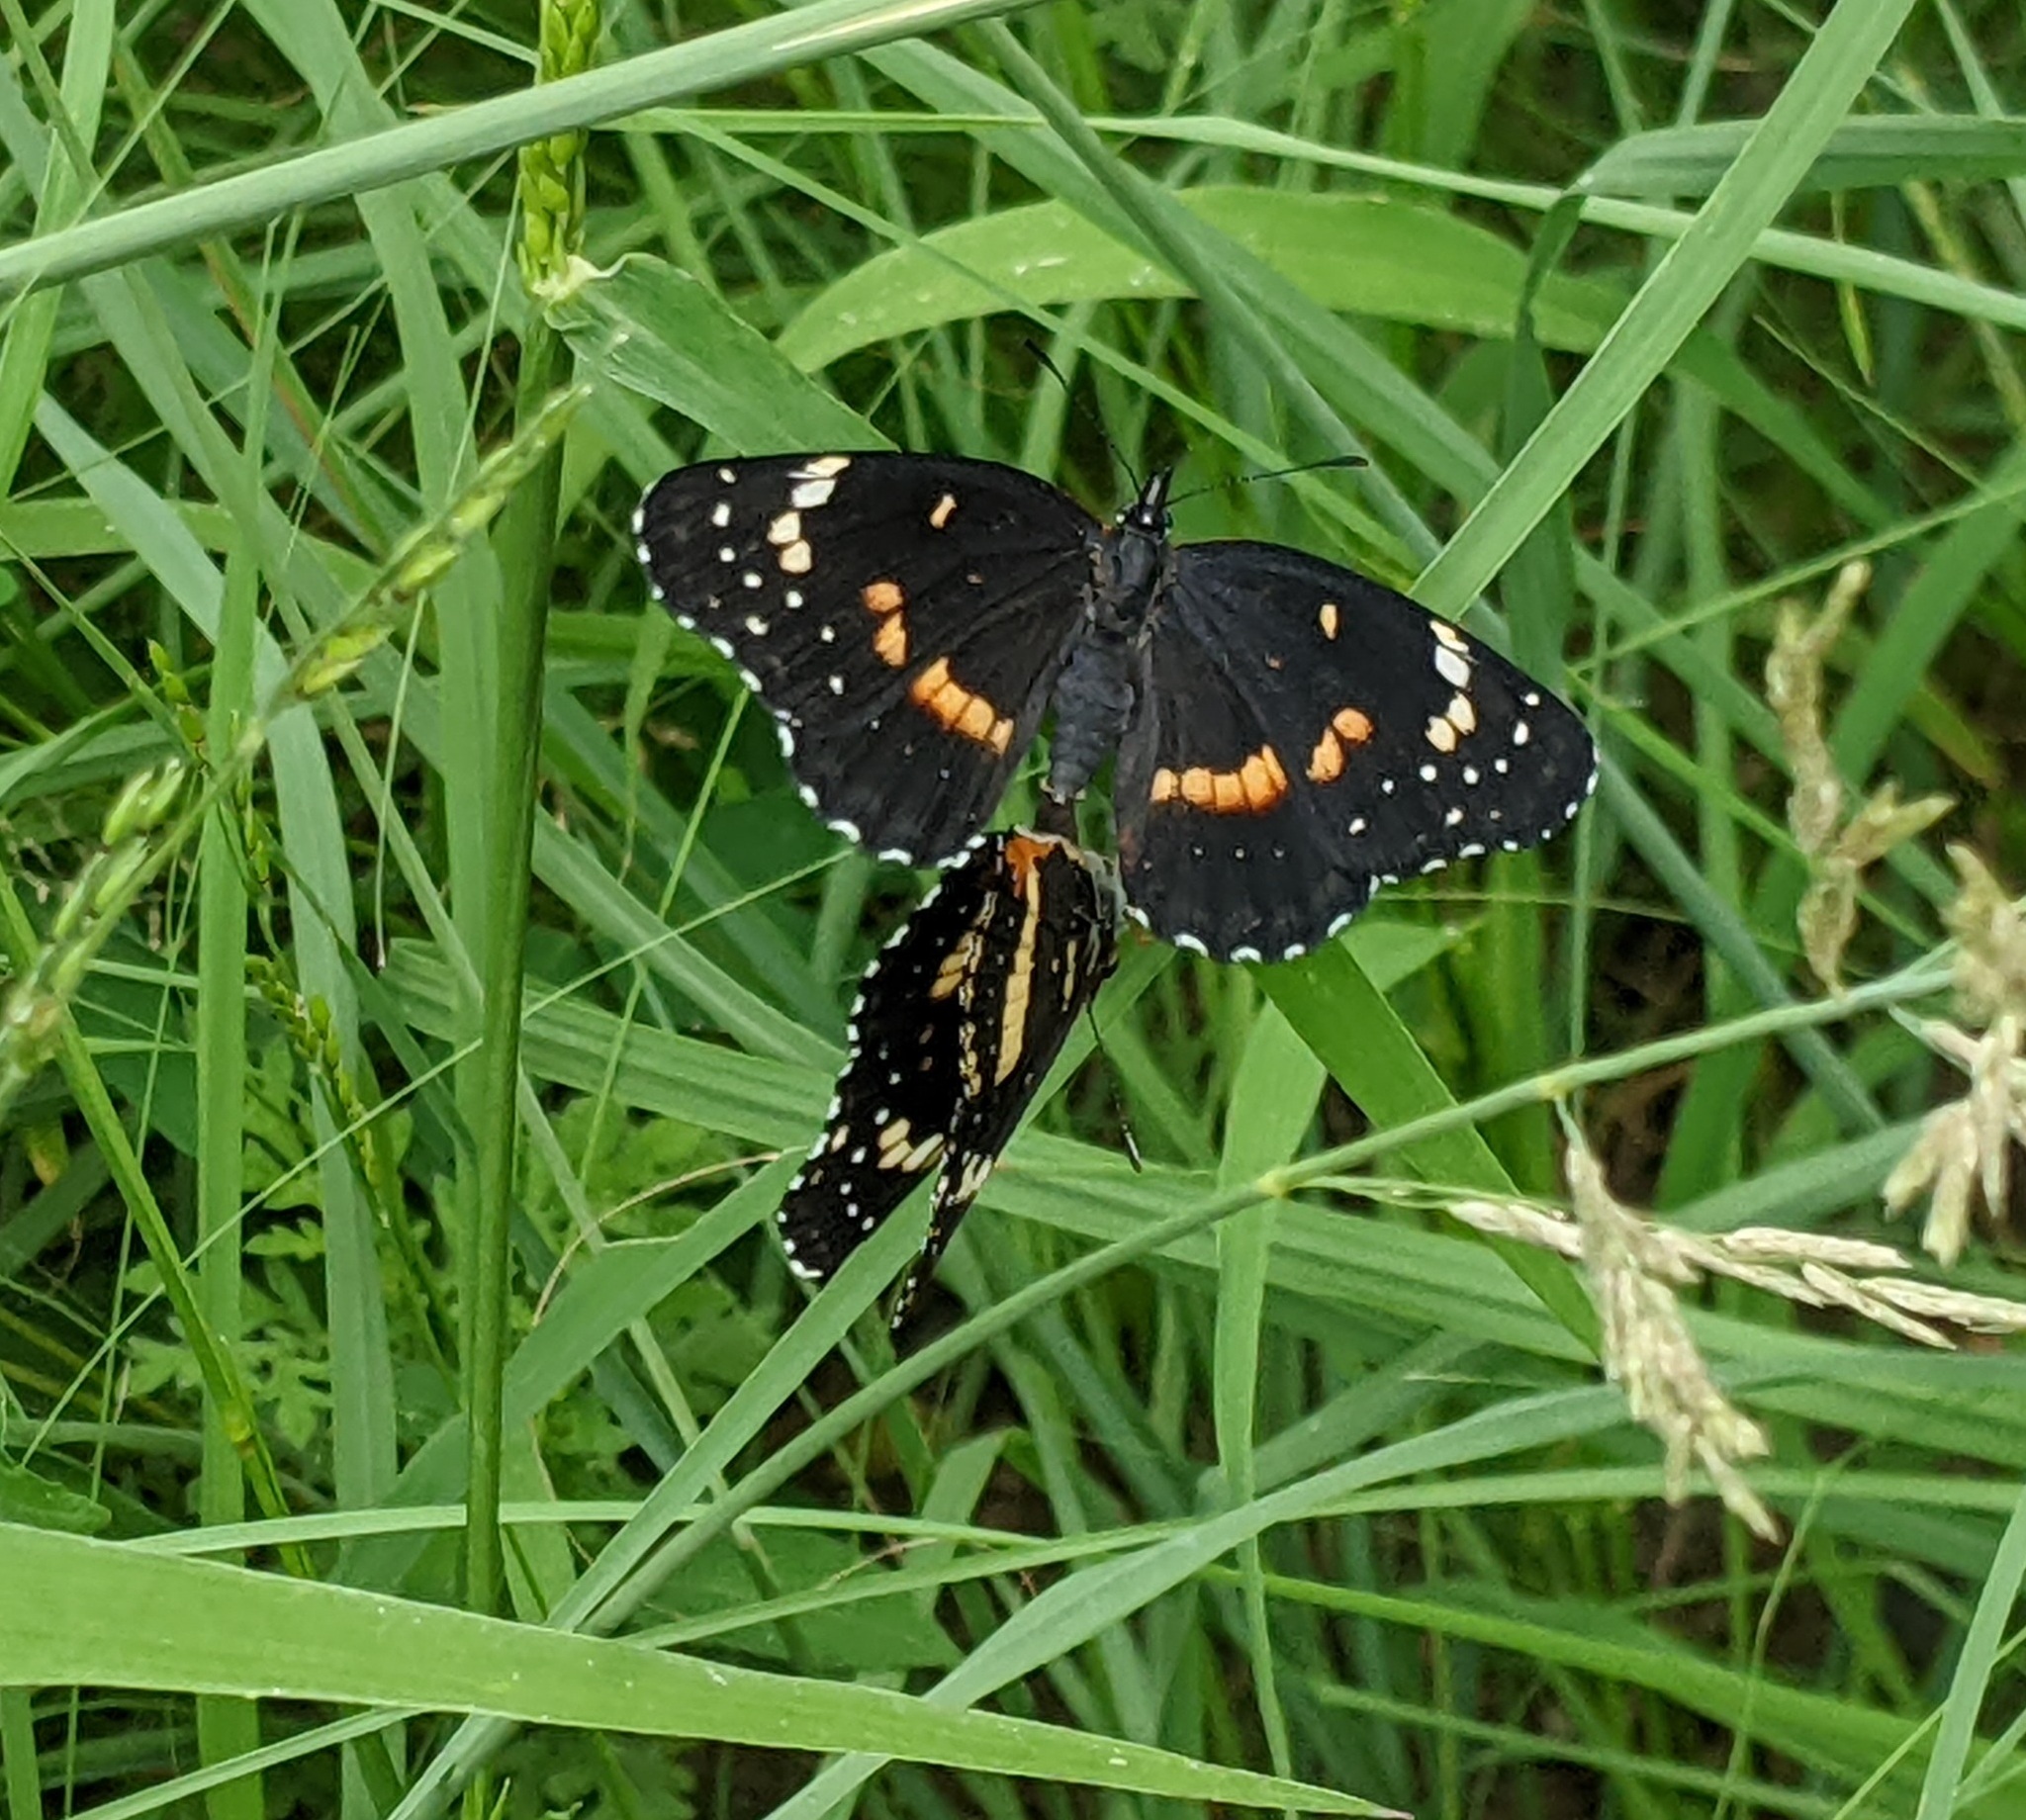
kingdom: Animalia
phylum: Arthropoda
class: Insecta
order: Lepidoptera
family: Nymphalidae
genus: Chlosyne
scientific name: Chlosyne lacinia
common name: Bordered patch
